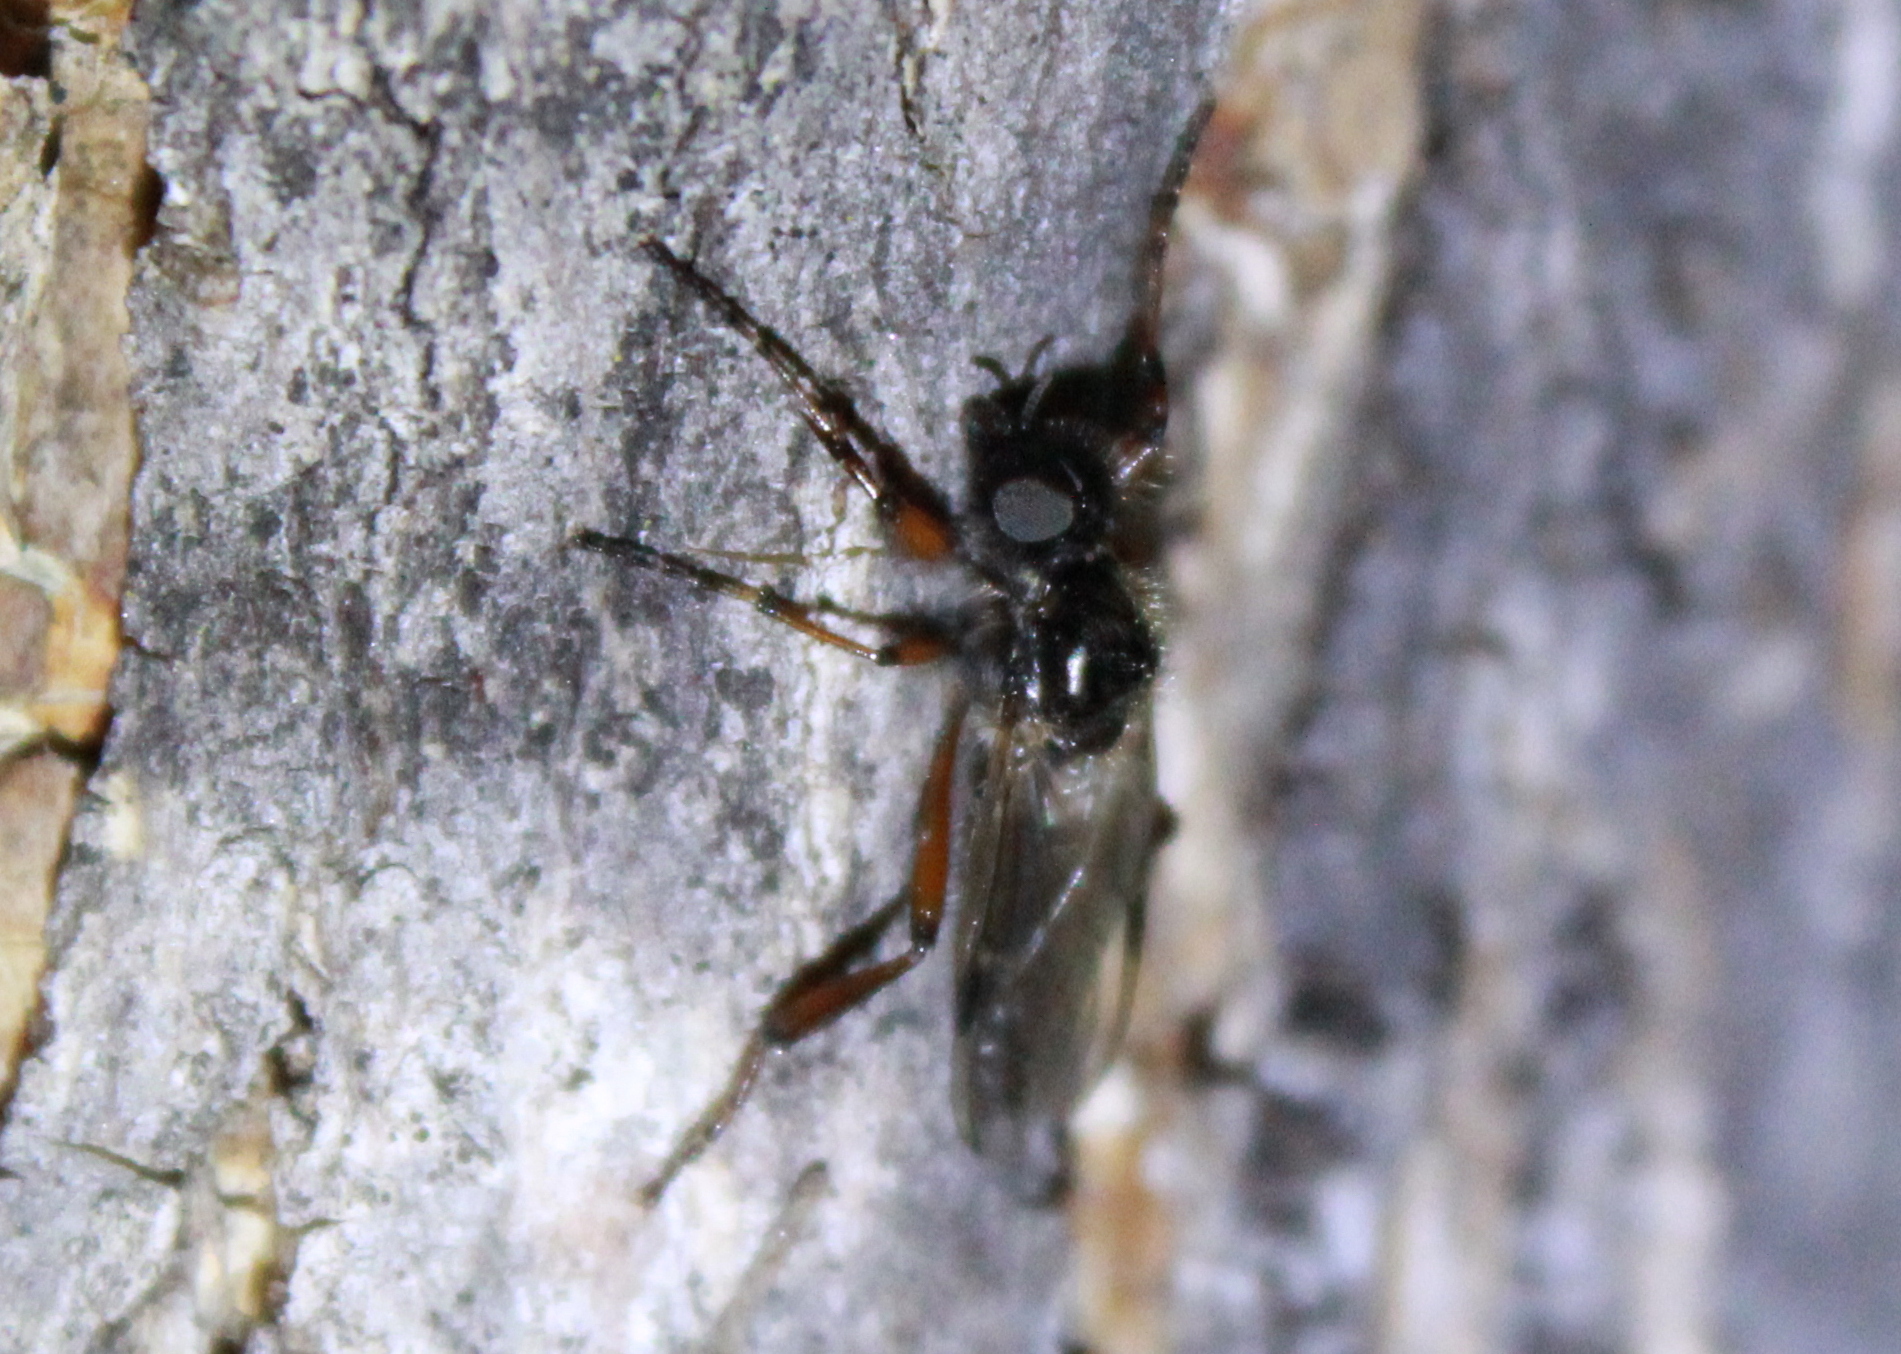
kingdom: Animalia
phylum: Arthropoda
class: Insecta
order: Diptera
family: Bibionidae
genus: Bibio
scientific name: Bibio articulatus
